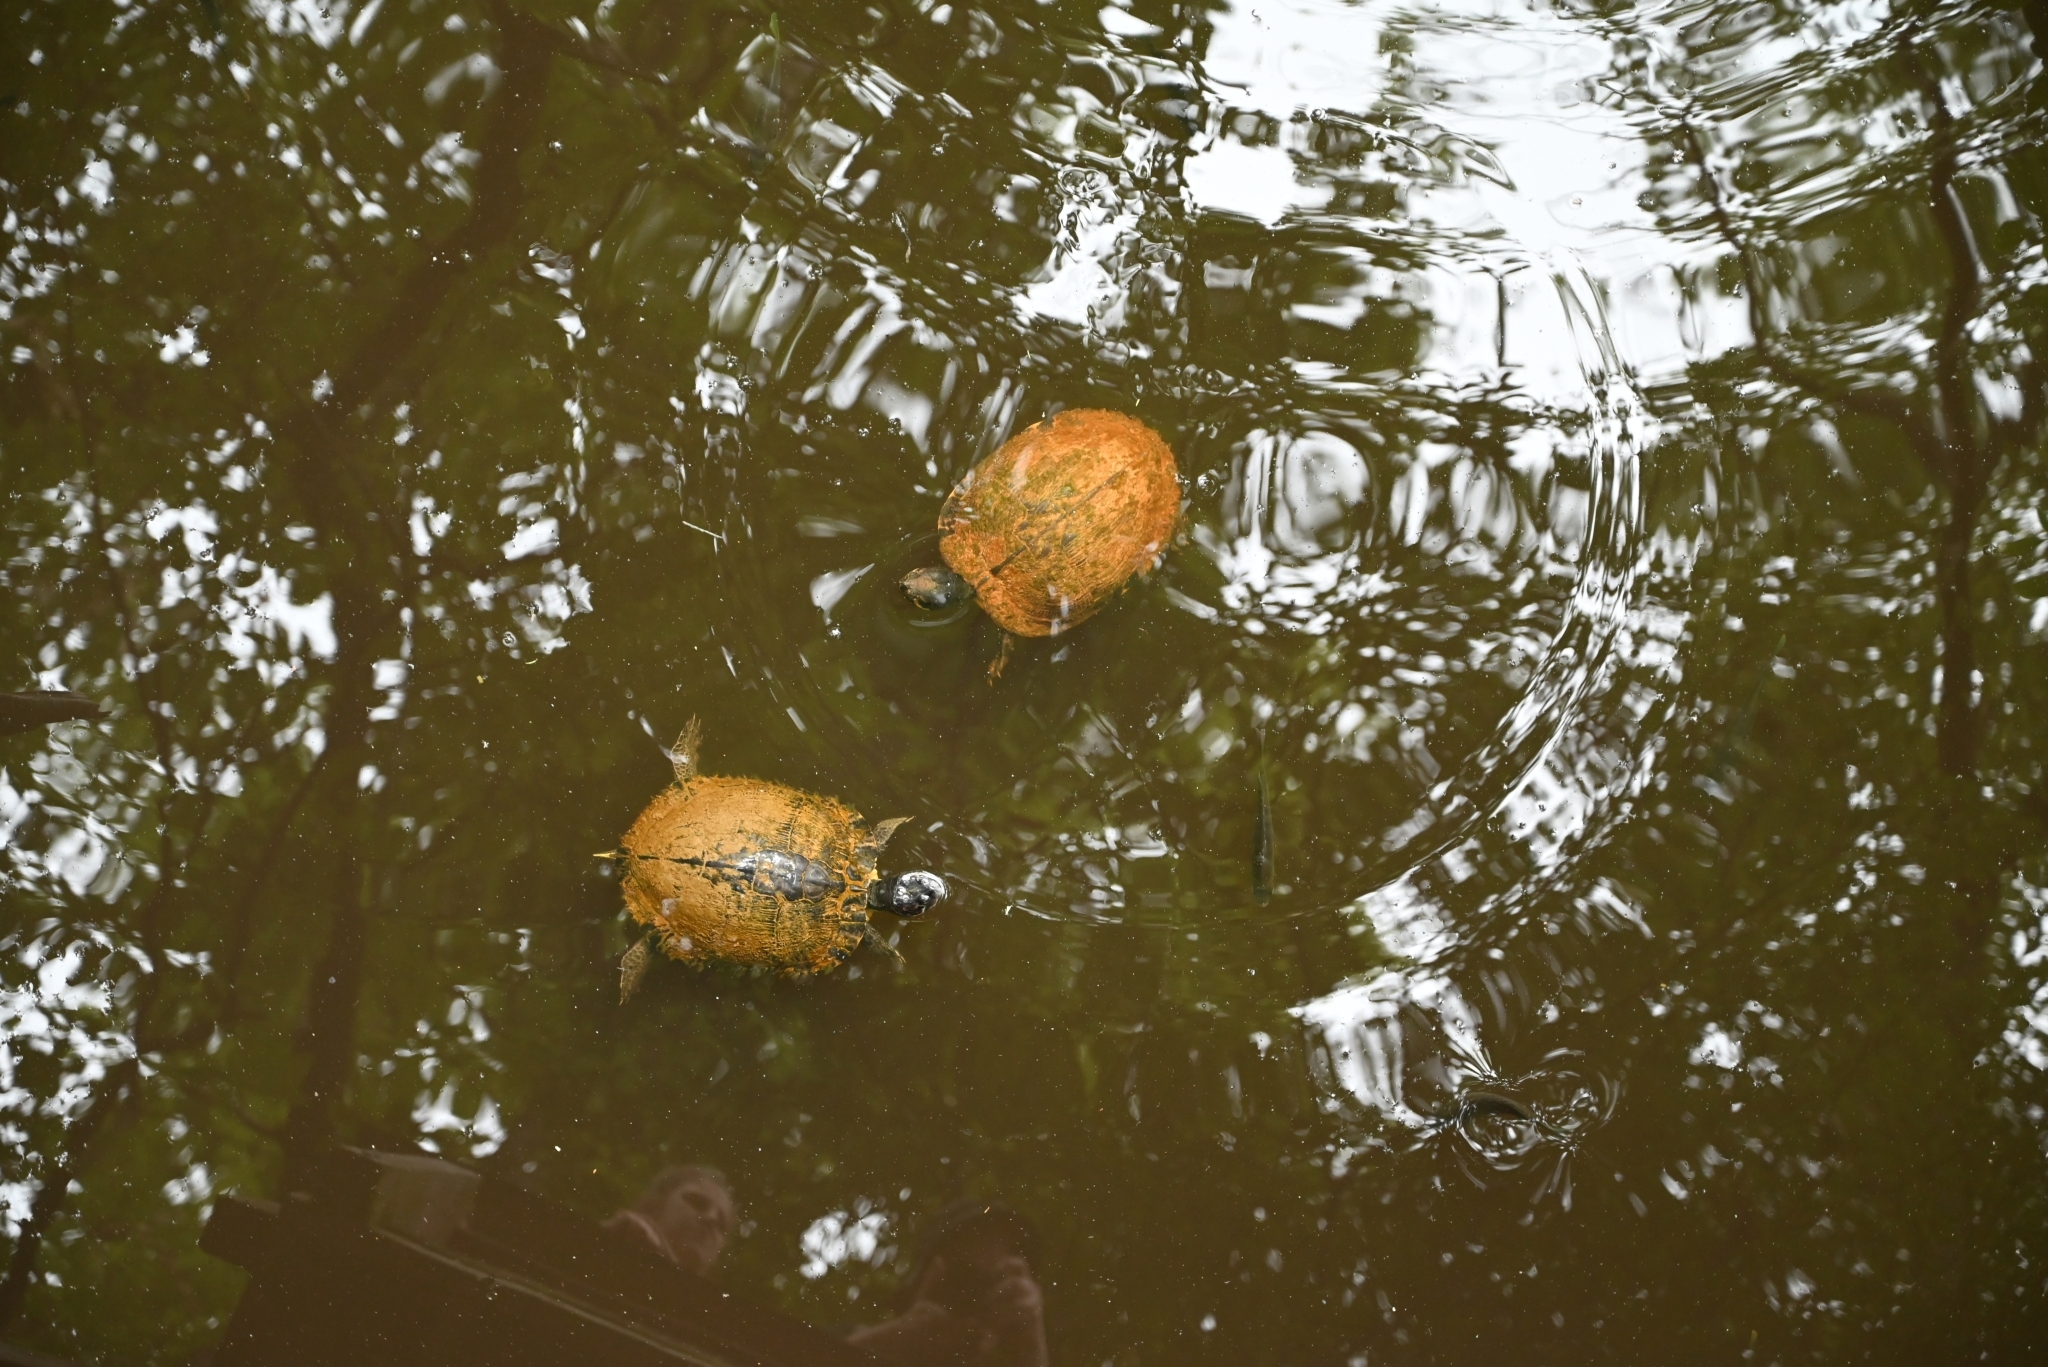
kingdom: Animalia
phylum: Chordata
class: Testudines
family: Emydidae
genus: Trachemys
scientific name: Trachemys scripta
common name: Slider
